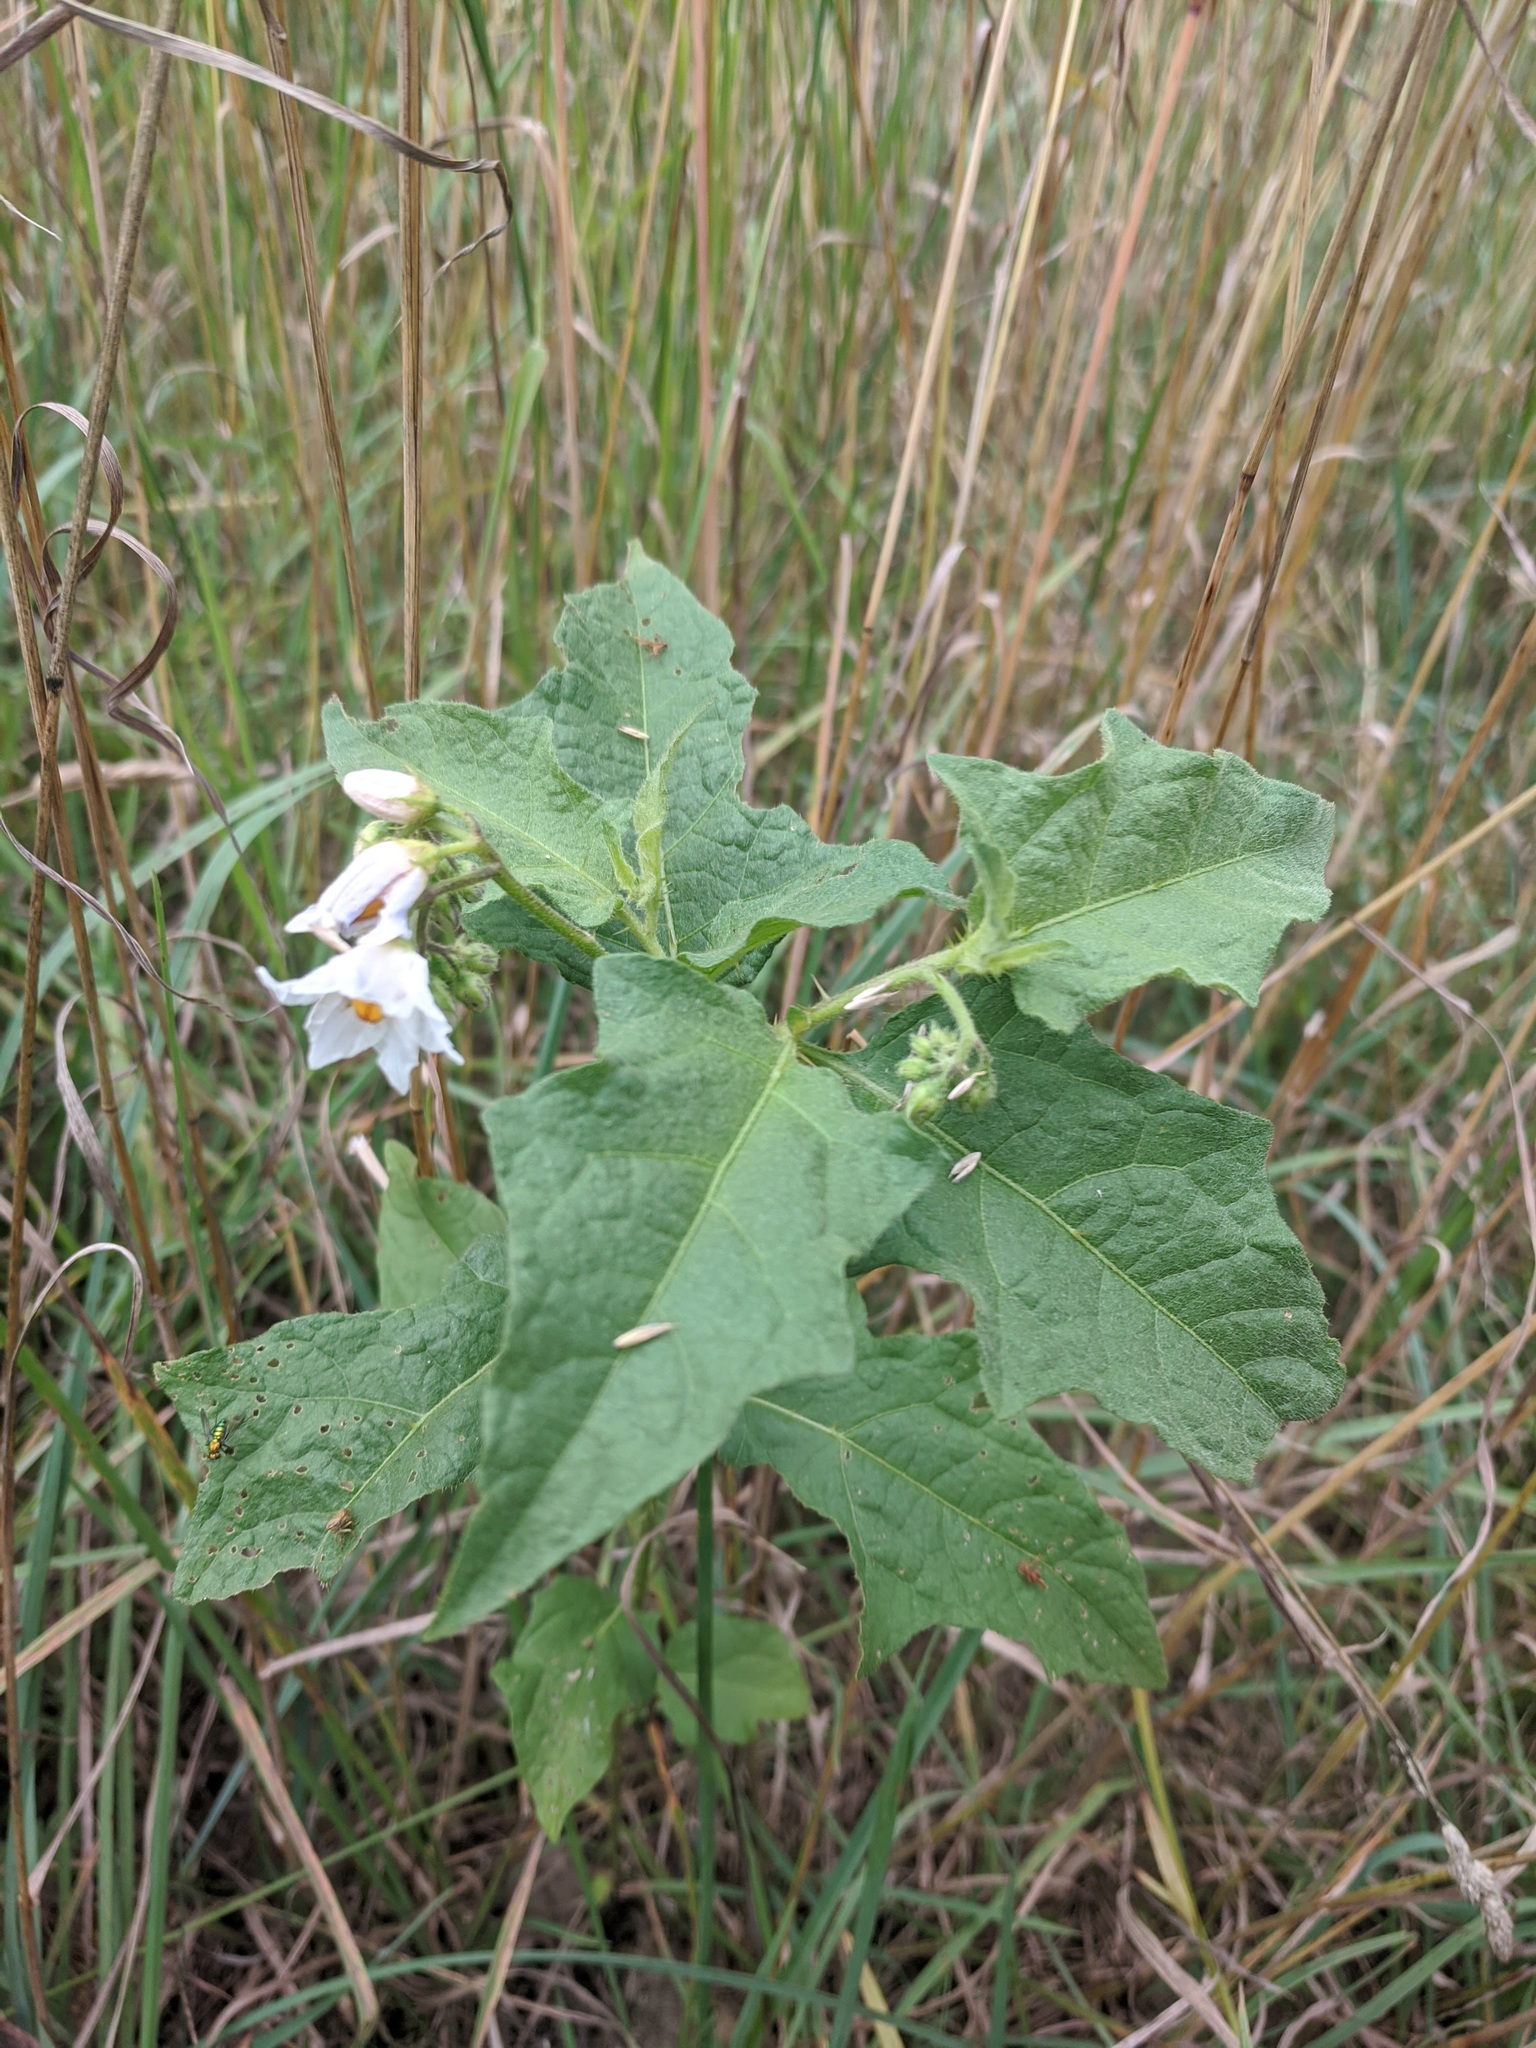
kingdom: Plantae
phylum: Tracheophyta
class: Magnoliopsida
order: Solanales
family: Solanaceae
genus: Solanum
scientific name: Solanum carolinense
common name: Horse-nettle
